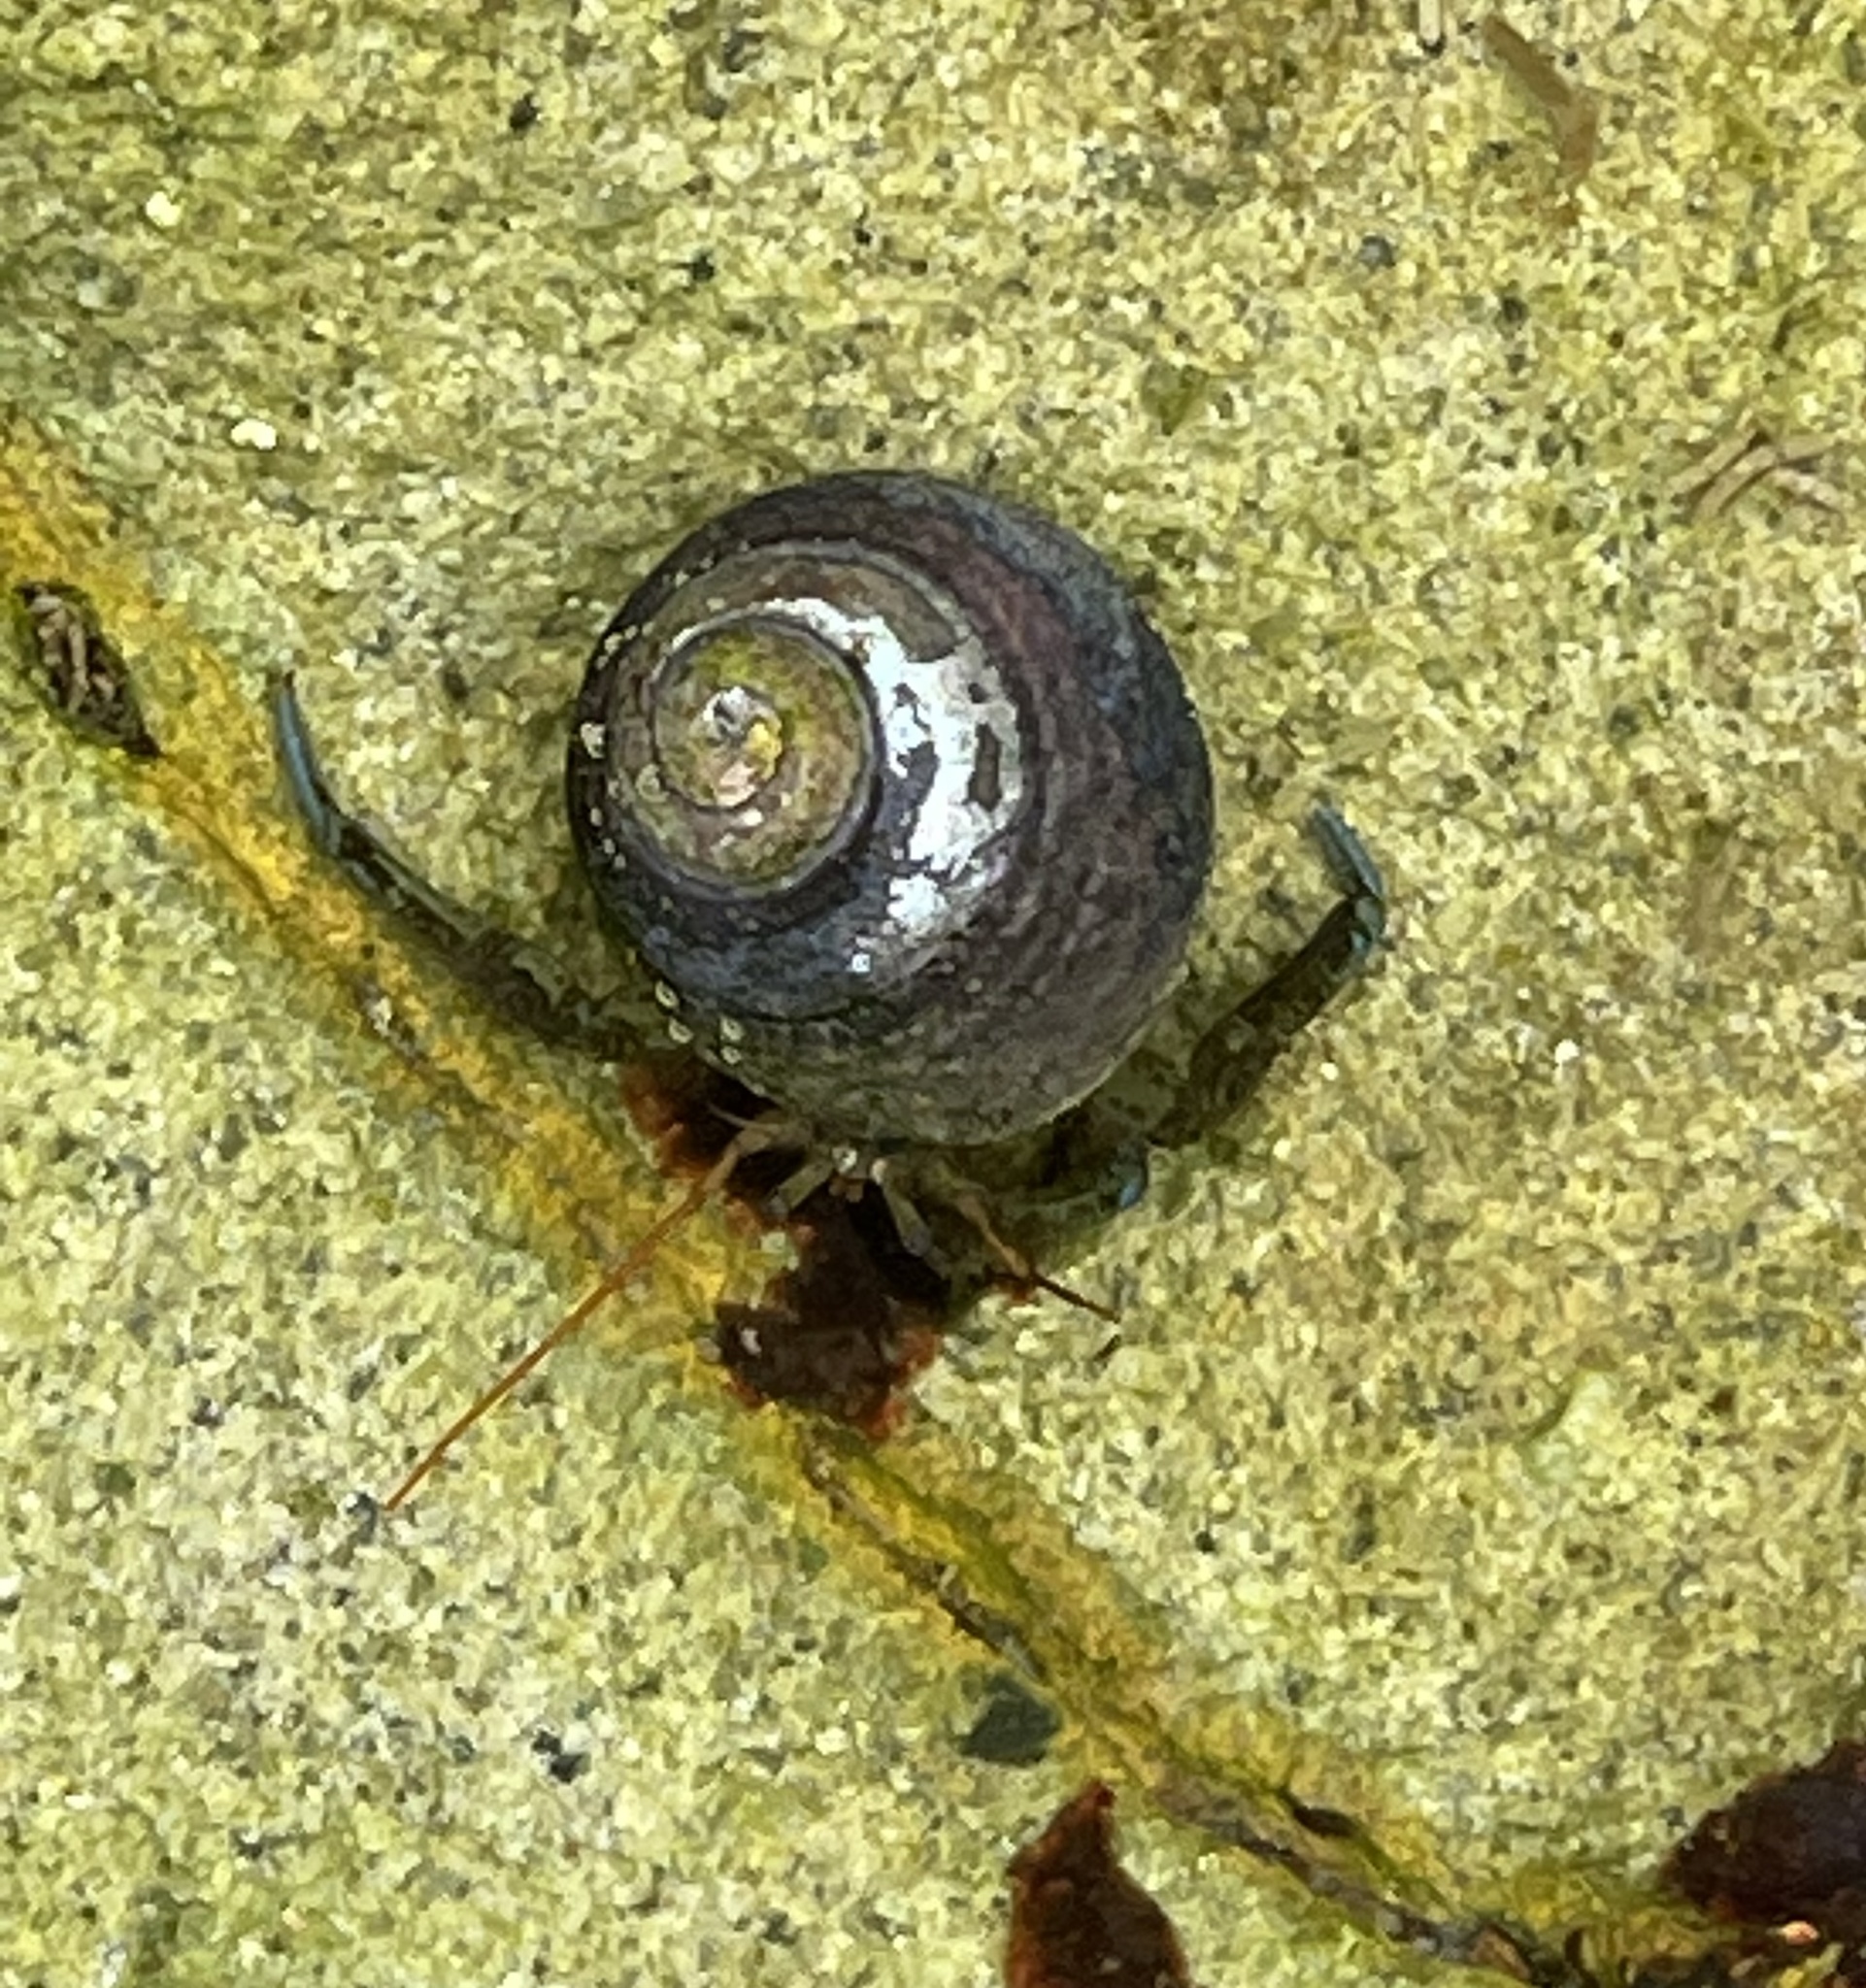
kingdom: Animalia
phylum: Arthropoda
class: Malacostraca
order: Decapoda
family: Paguridae
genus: Pagurus
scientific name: Pagurus samuelis
